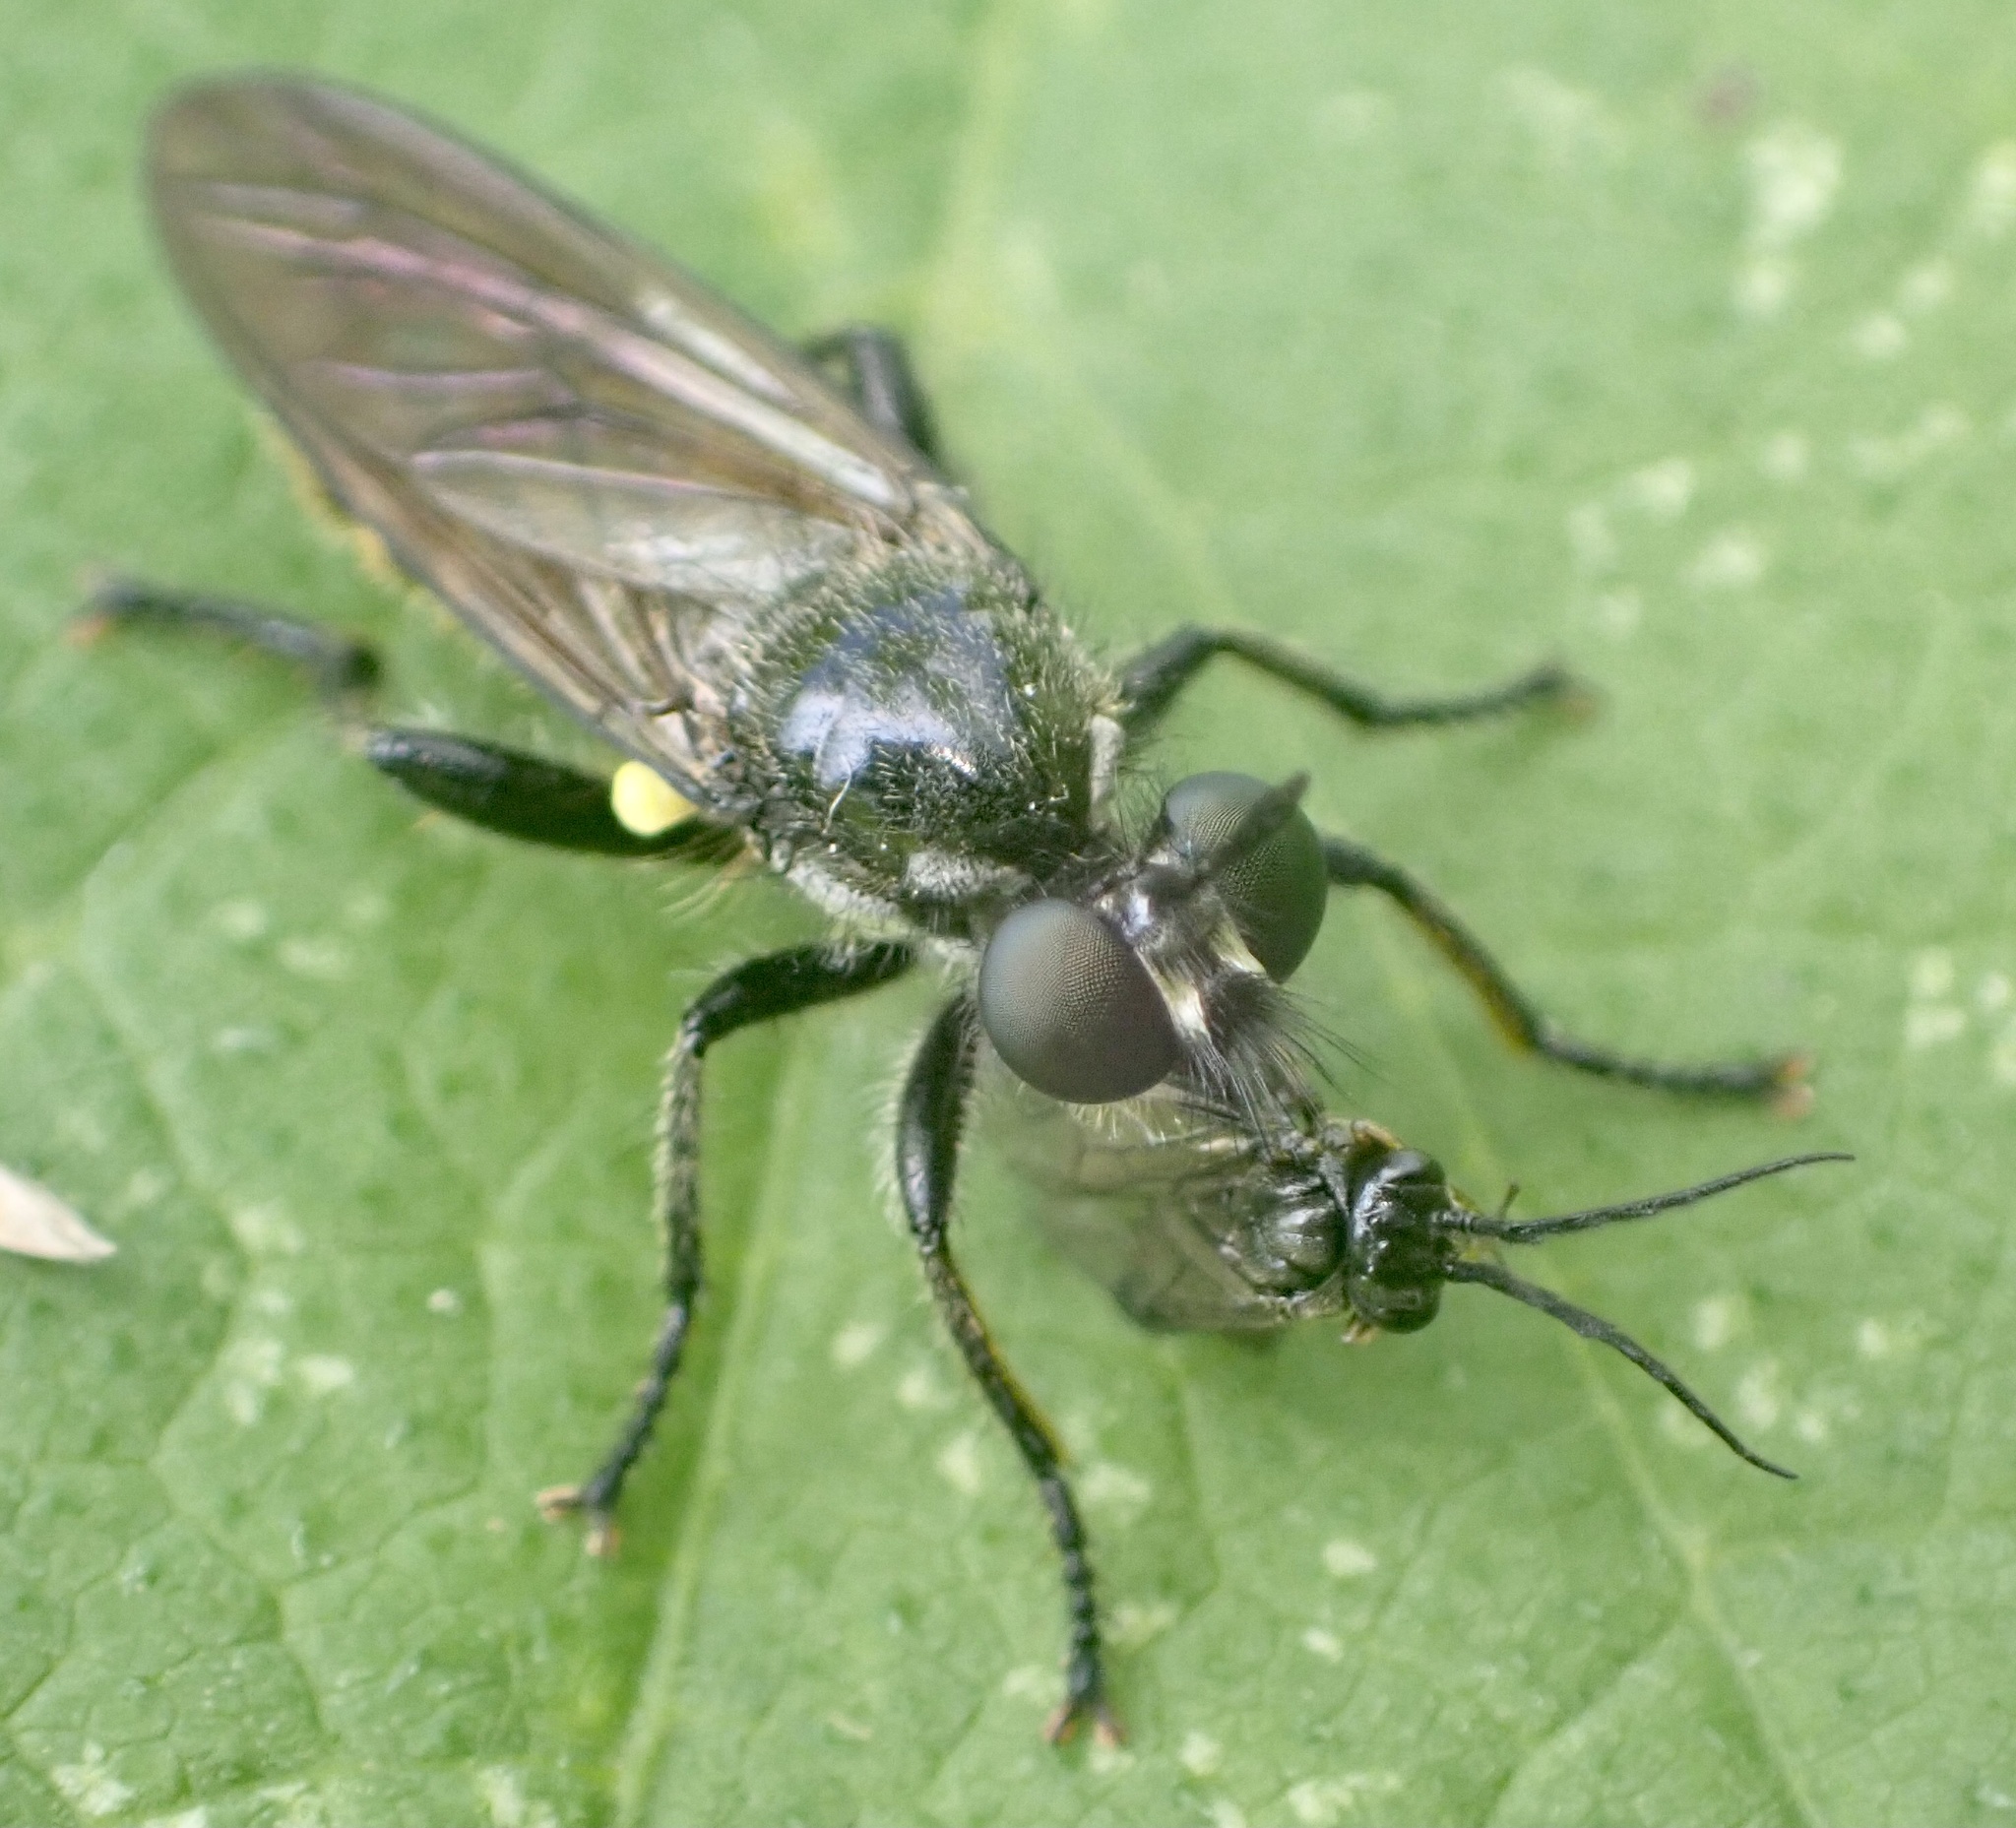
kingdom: Animalia
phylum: Arthropoda
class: Insecta
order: Diptera
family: Asilidae
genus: Lamyra
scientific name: Lamyra marginata
